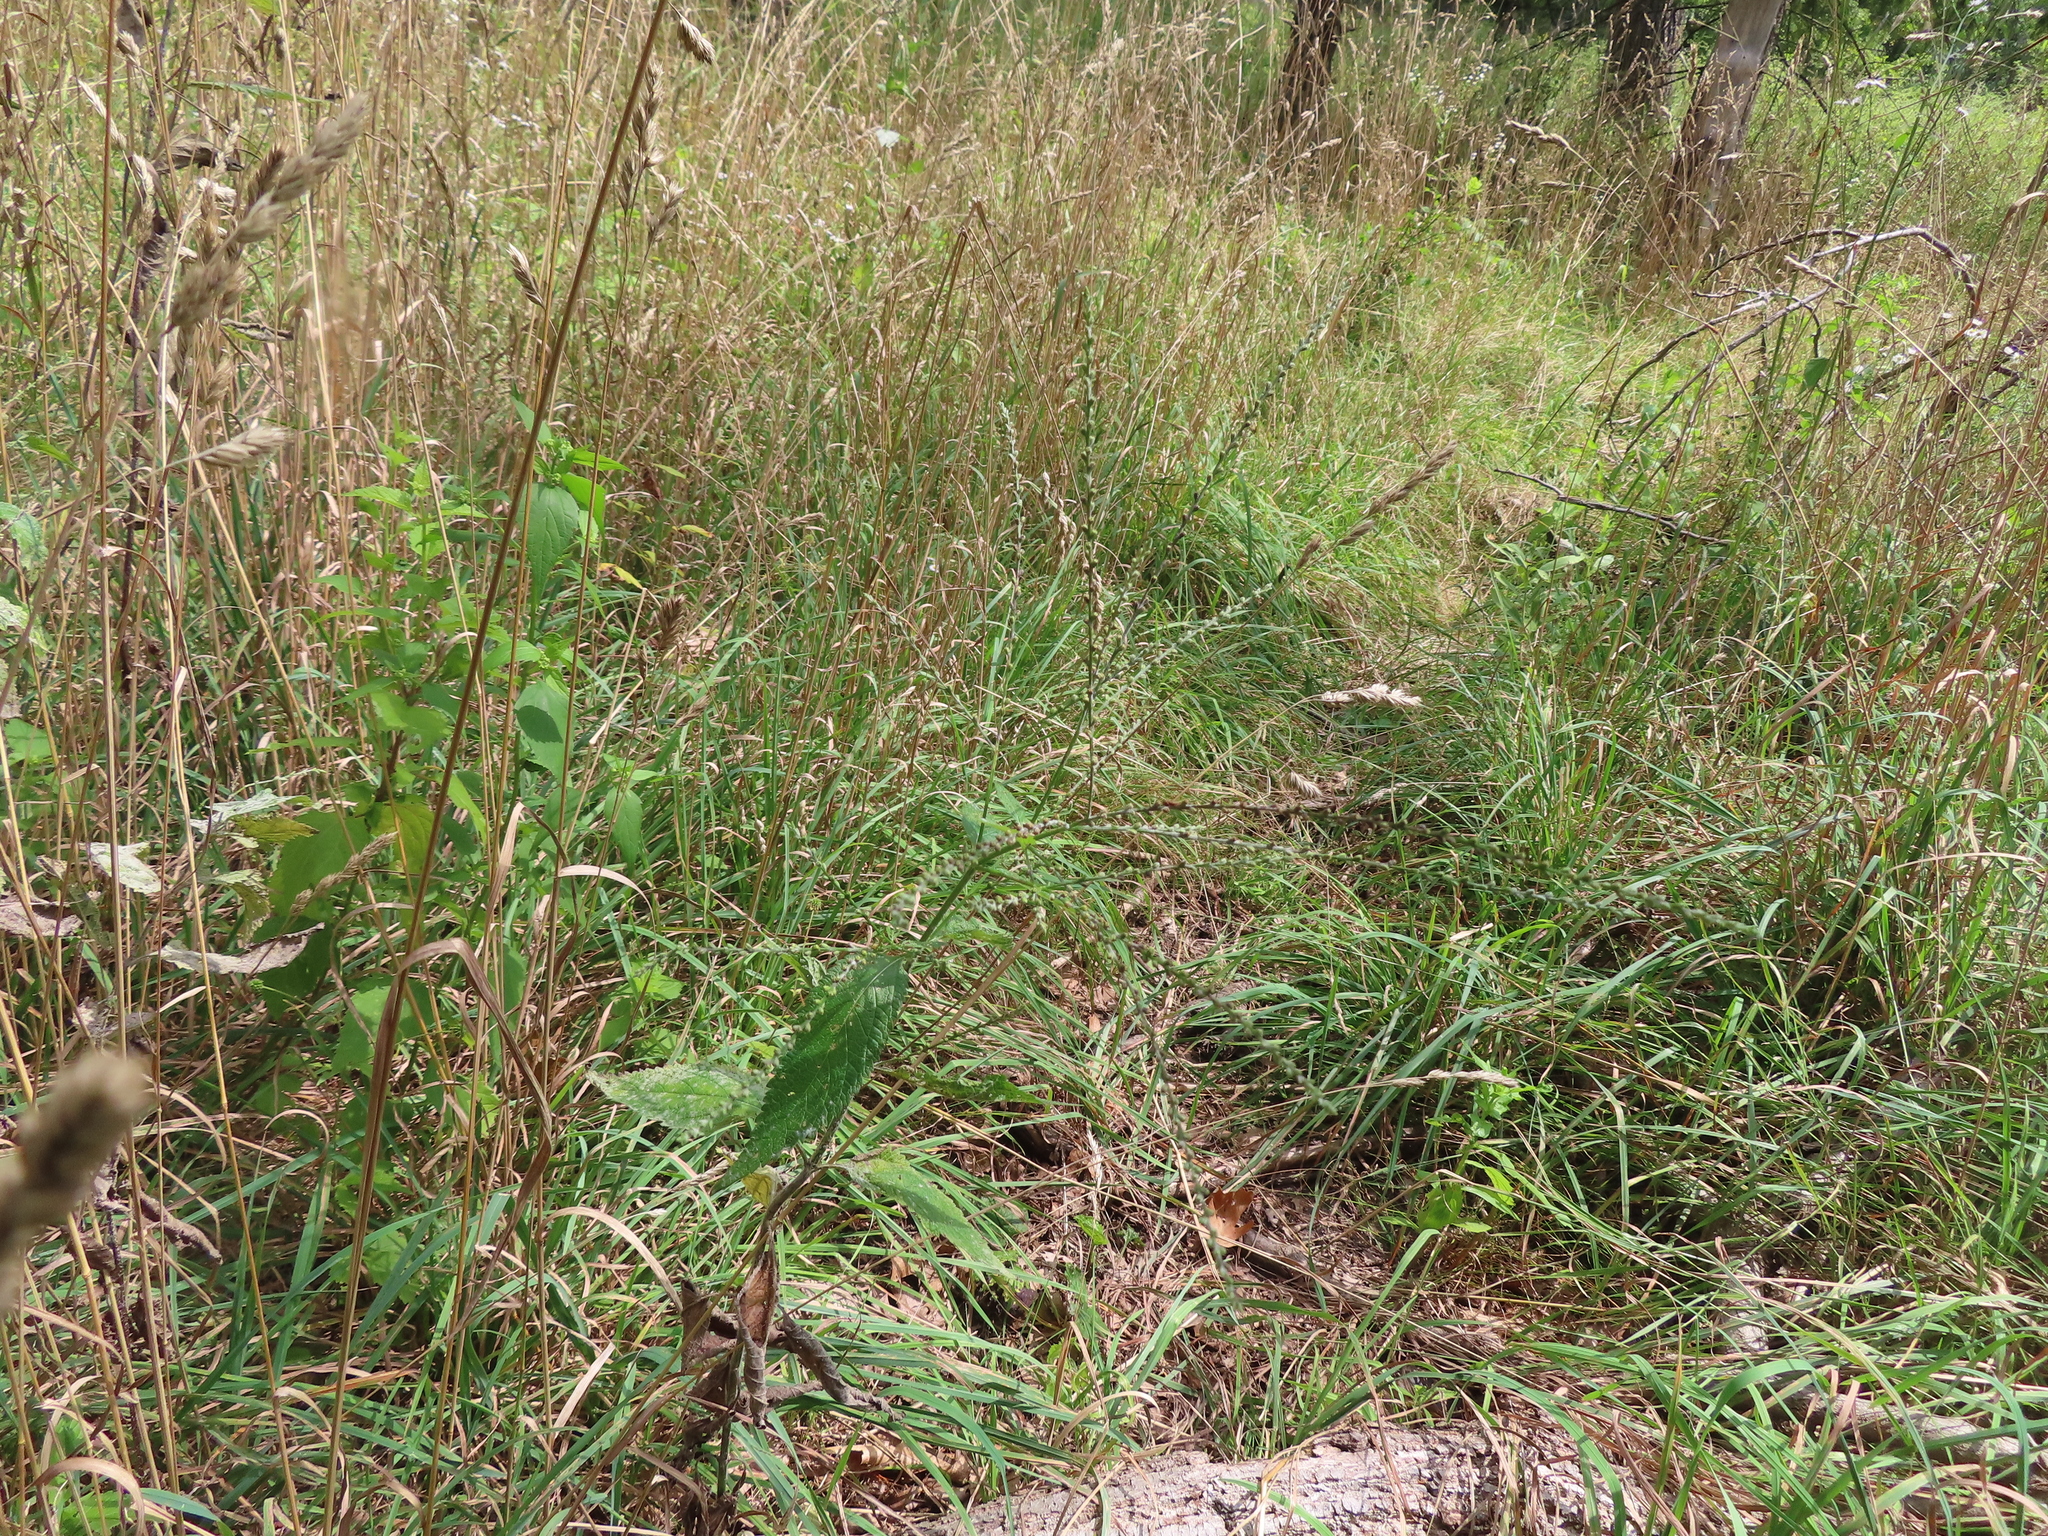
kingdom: Plantae
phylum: Tracheophyta
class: Magnoliopsida
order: Lamiales
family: Verbenaceae
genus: Verbena
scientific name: Verbena urticifolia
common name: Nettle-leaved vervain
